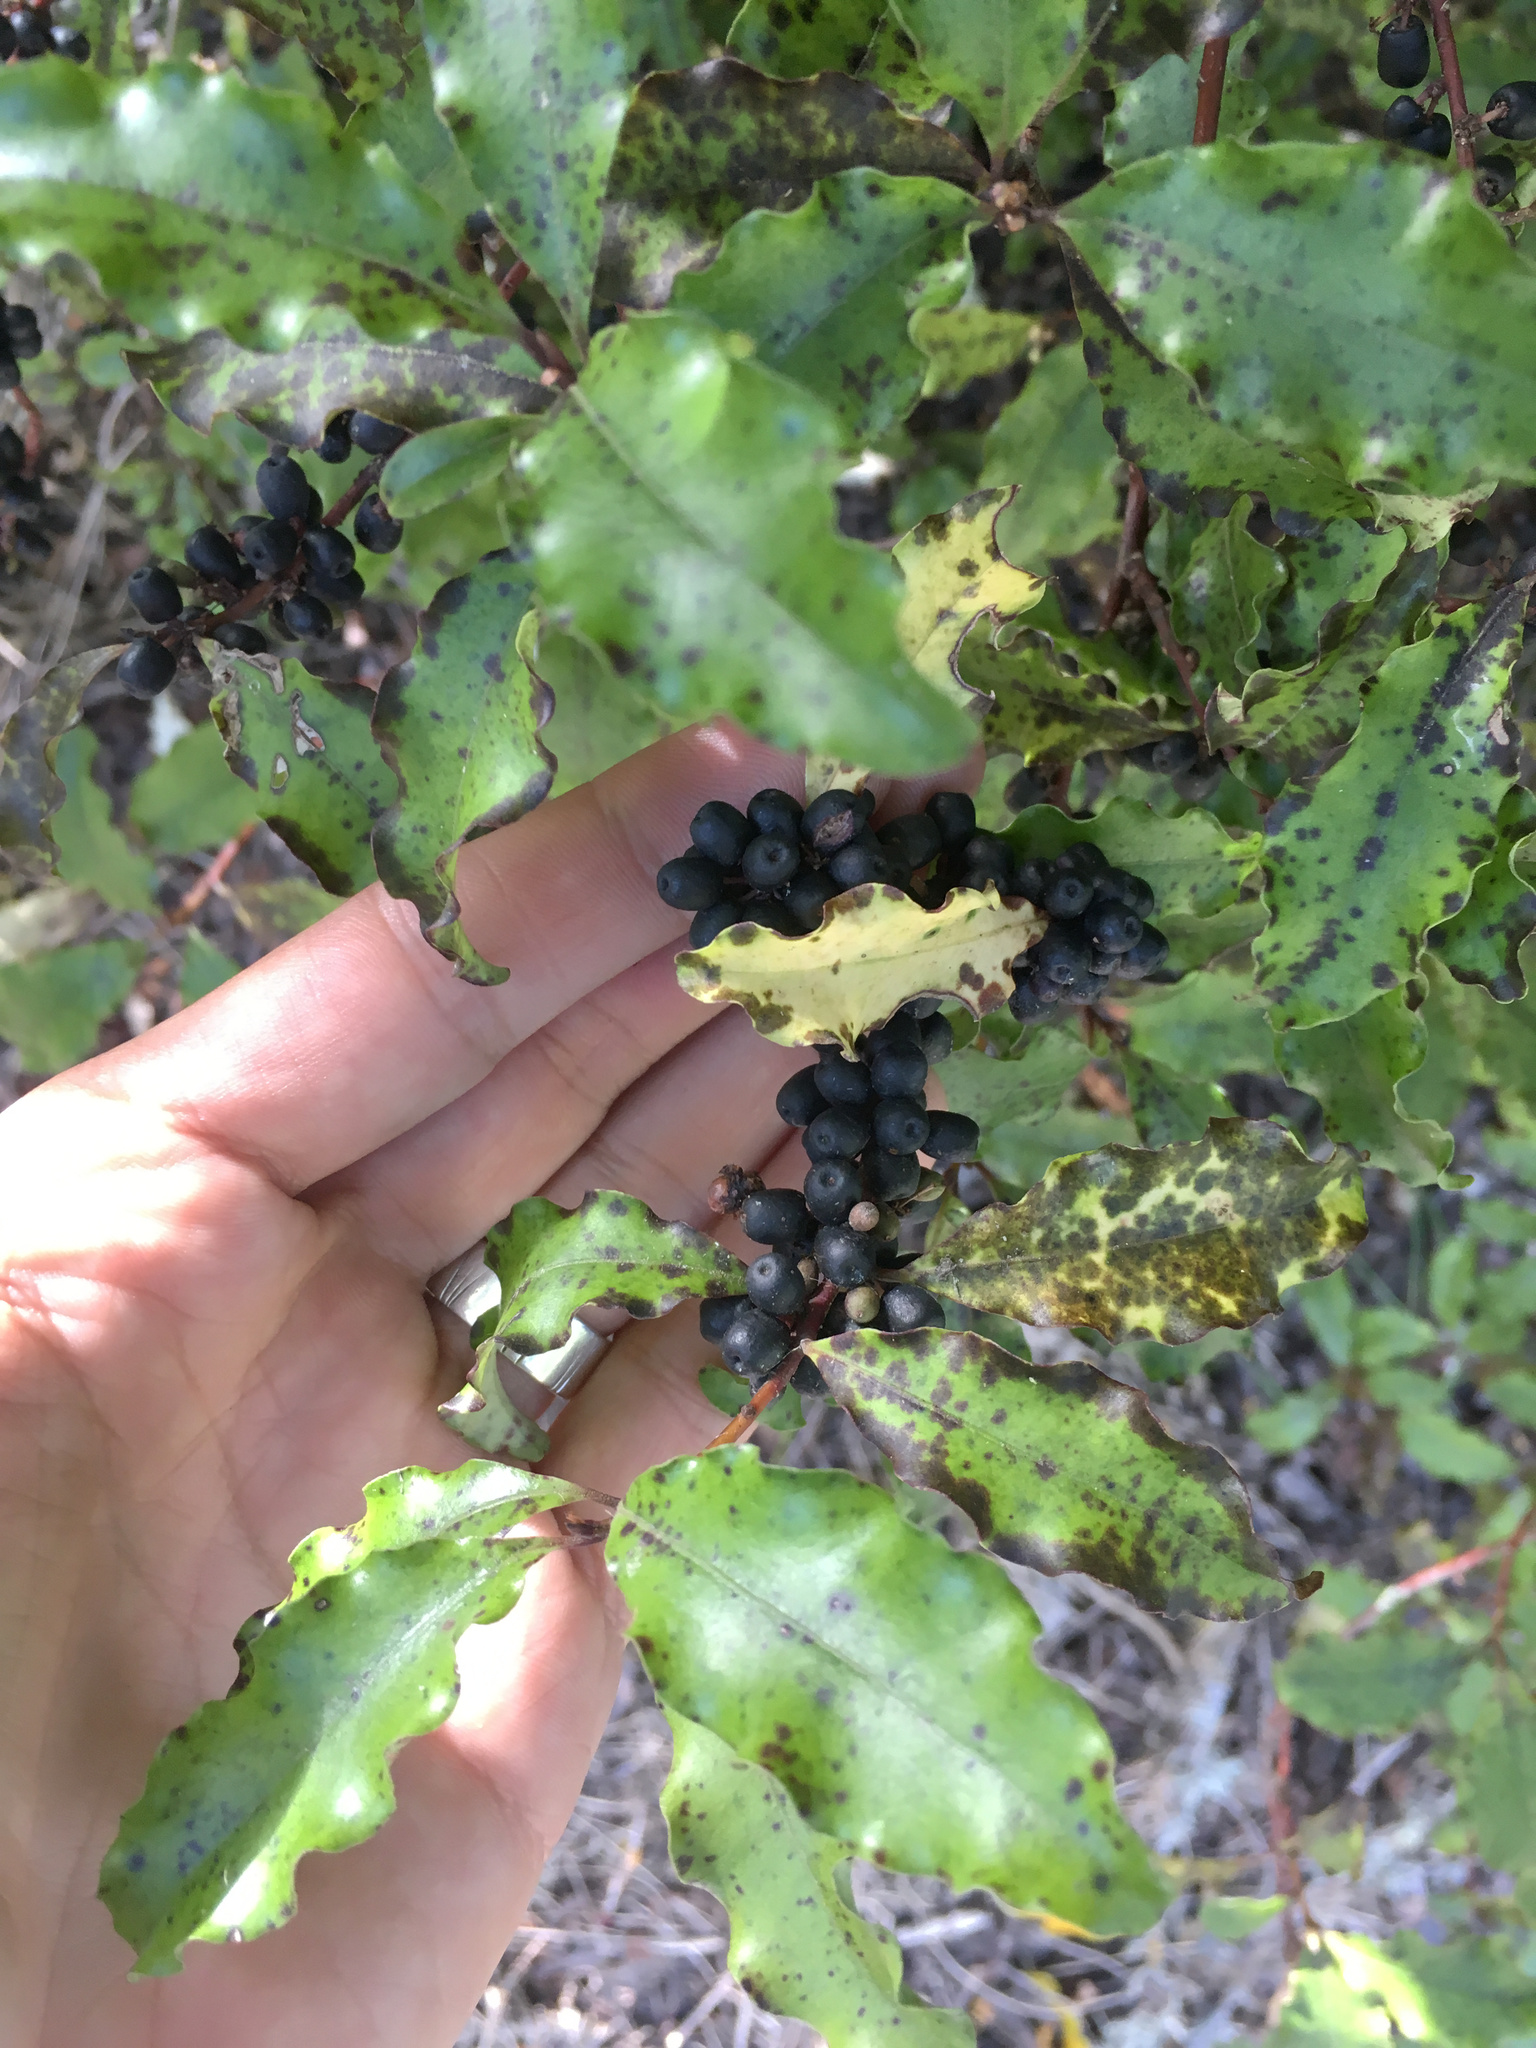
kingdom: Plantae
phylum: Tracheophyta
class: Magnoliopsida
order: Ericales
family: Primulaceae
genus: Myrsine
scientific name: Myrsine australis
